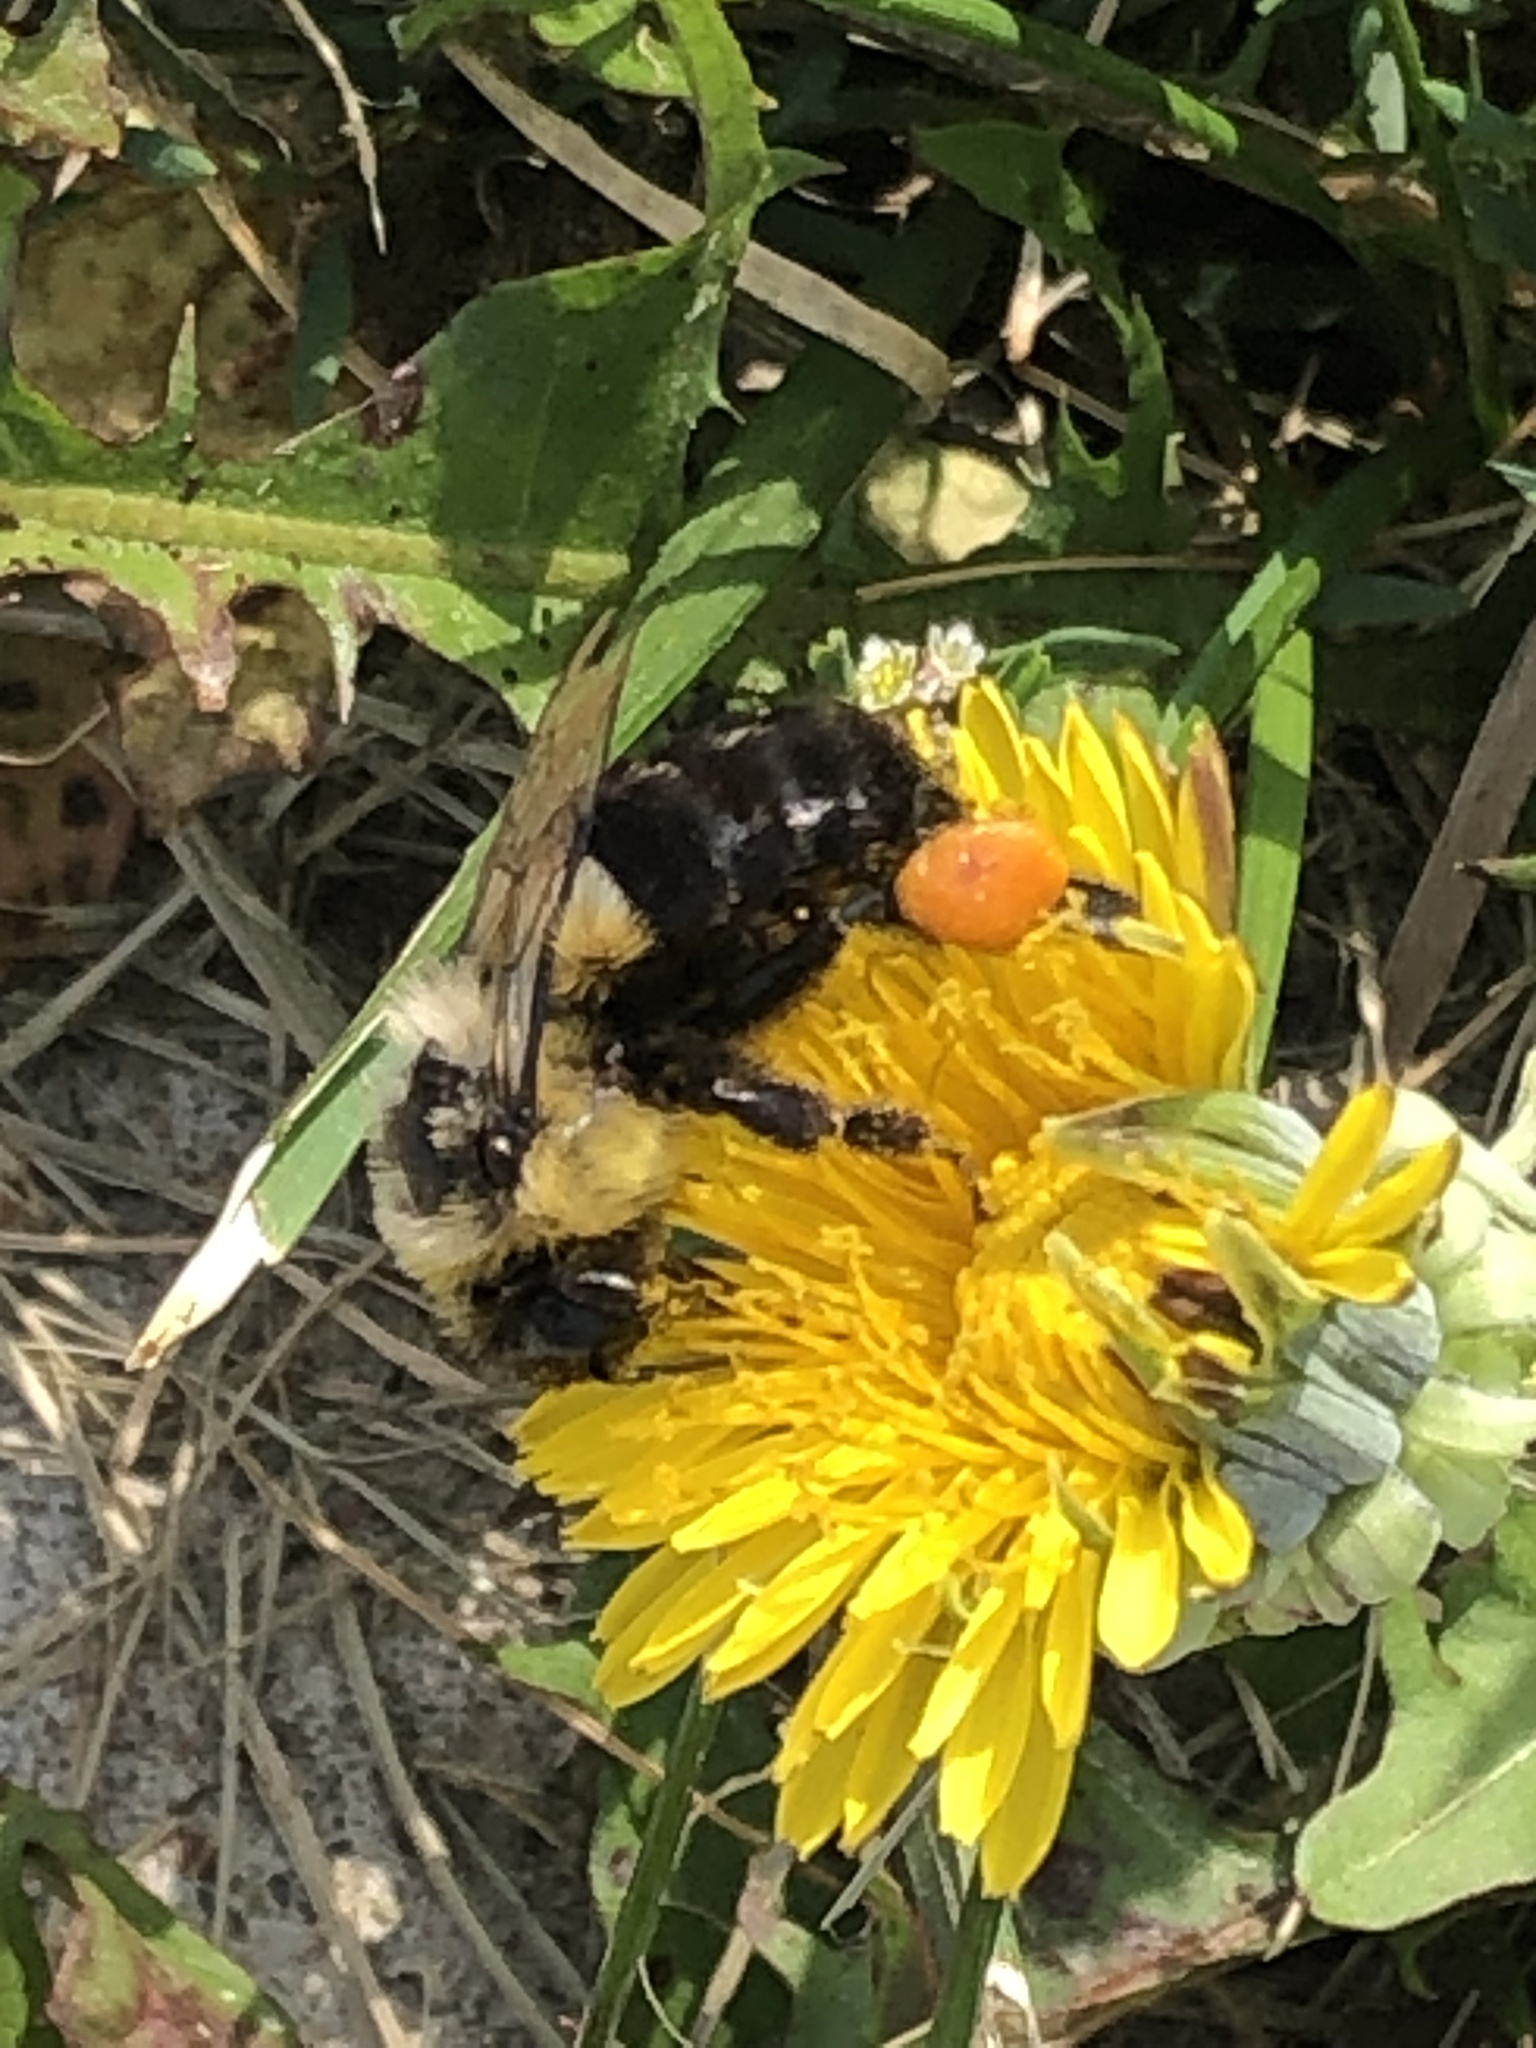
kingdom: Animalia
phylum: Arthropoda
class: Insecta
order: Hymenoptera
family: Apidae
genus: Bombus
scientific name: Bombus impatiens
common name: Common eastern bumble bee
